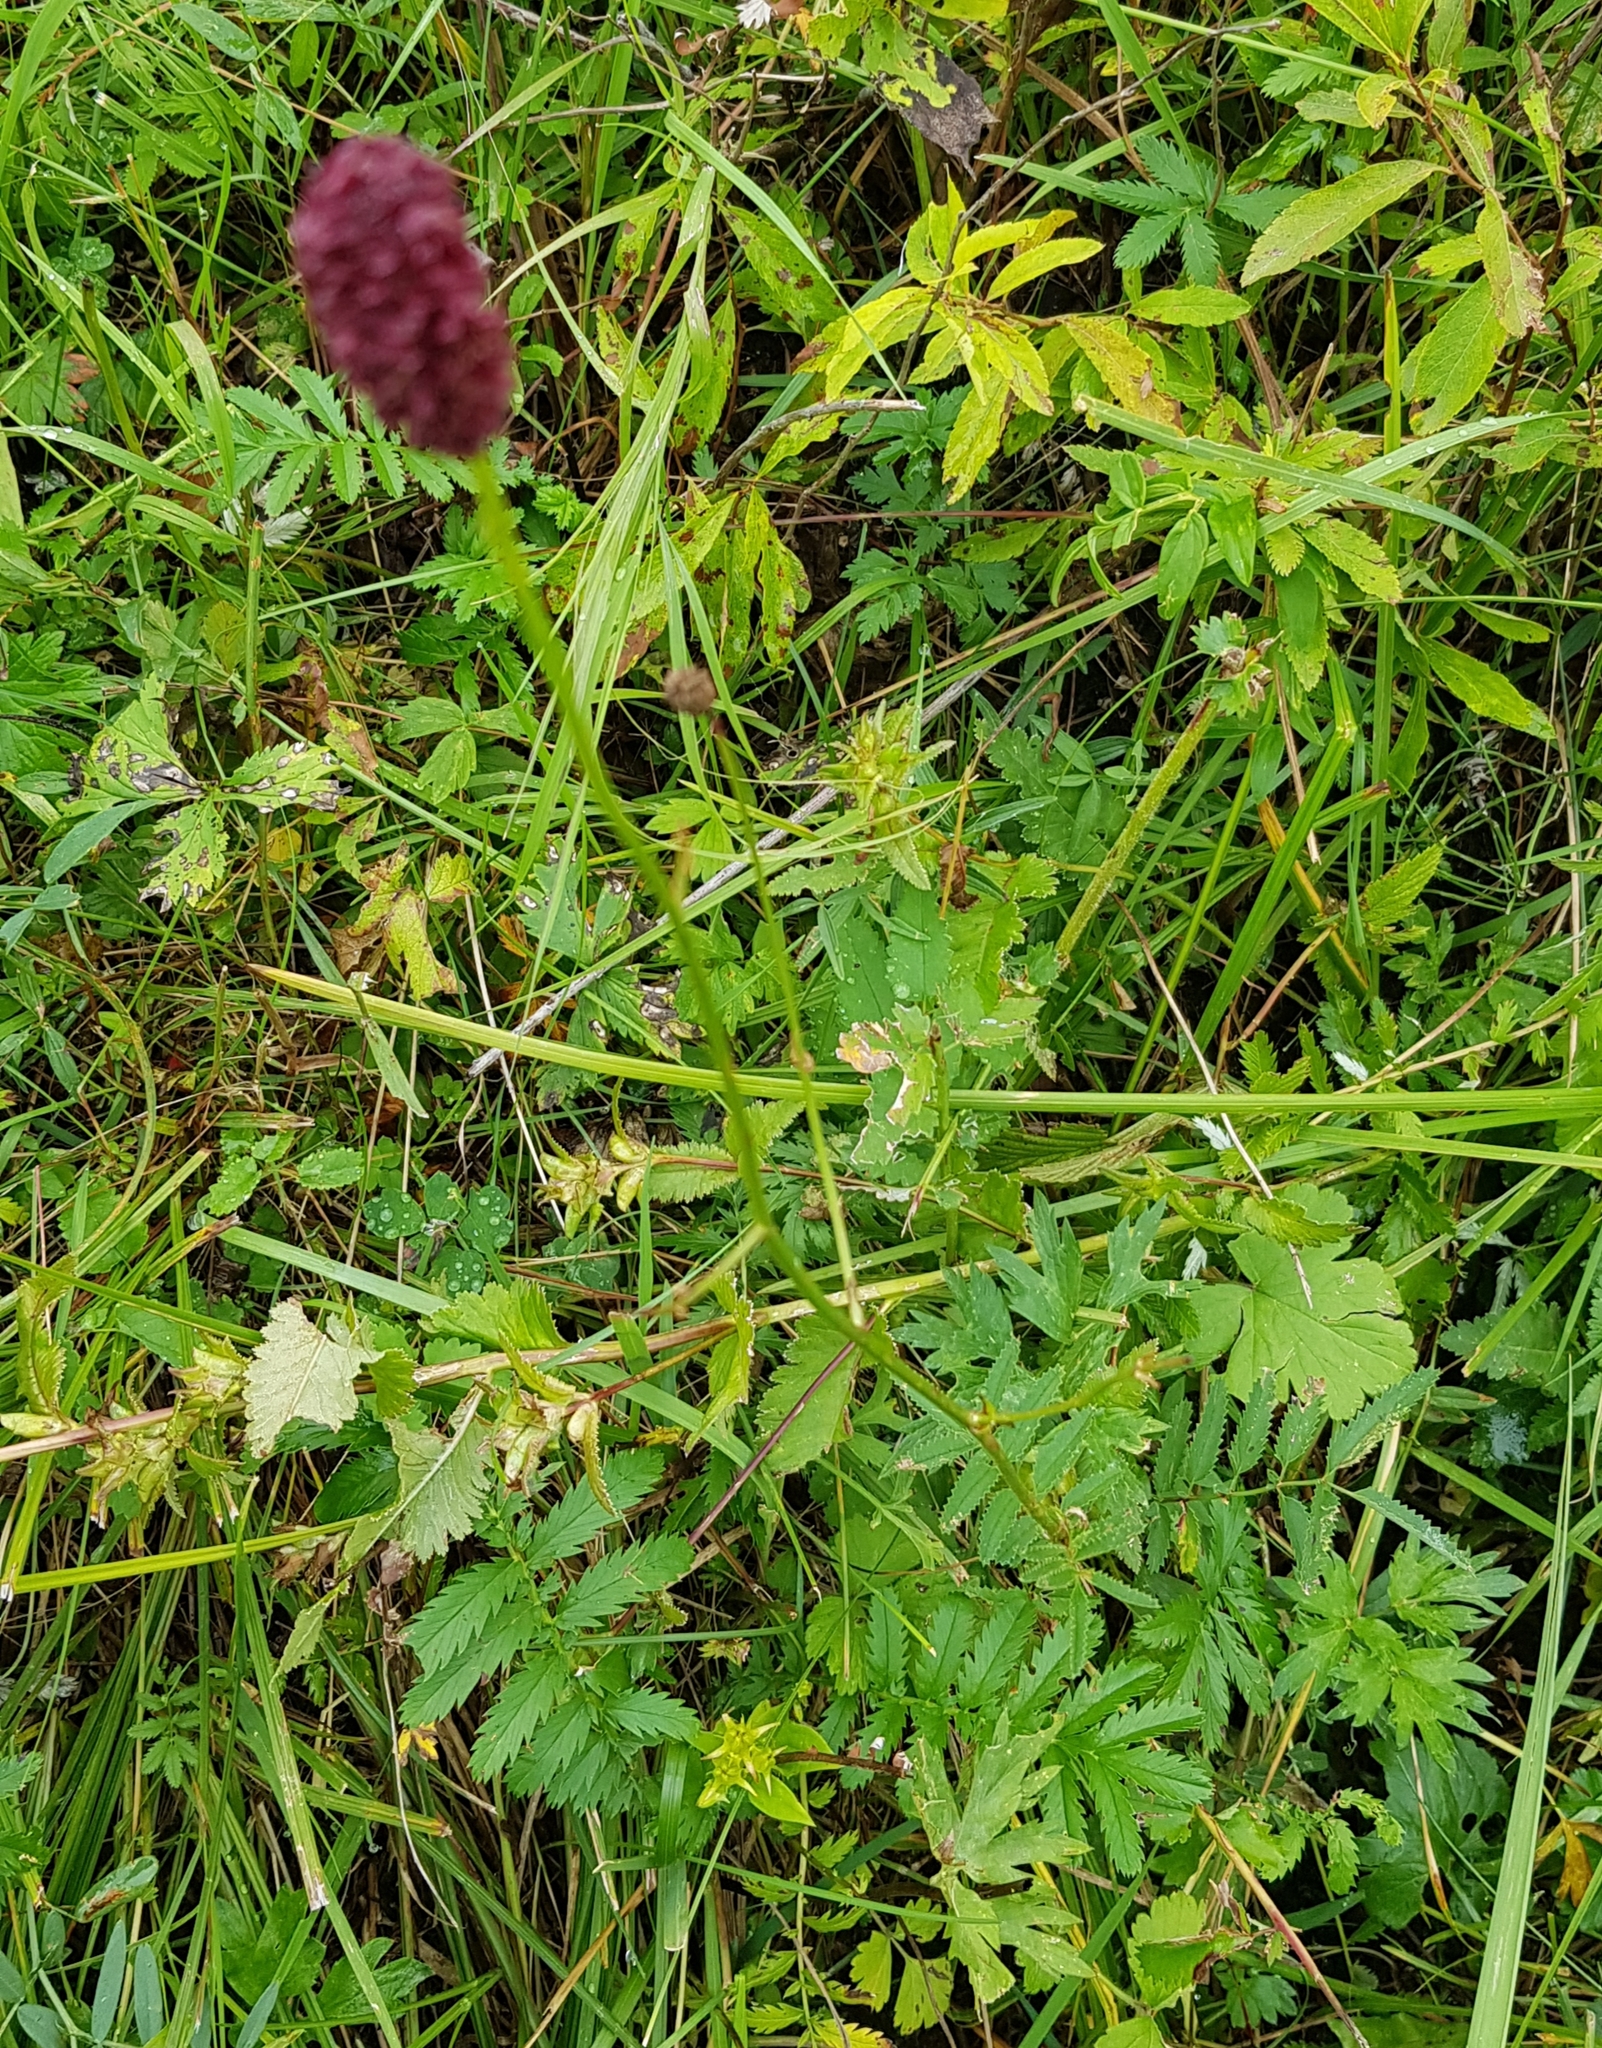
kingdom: Plantae
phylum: Tracheophyta
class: Magnoliopsida
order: Rosales
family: Rosaceae
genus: Sanguisorba
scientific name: Sanguisorba officinalis
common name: Great burnet
